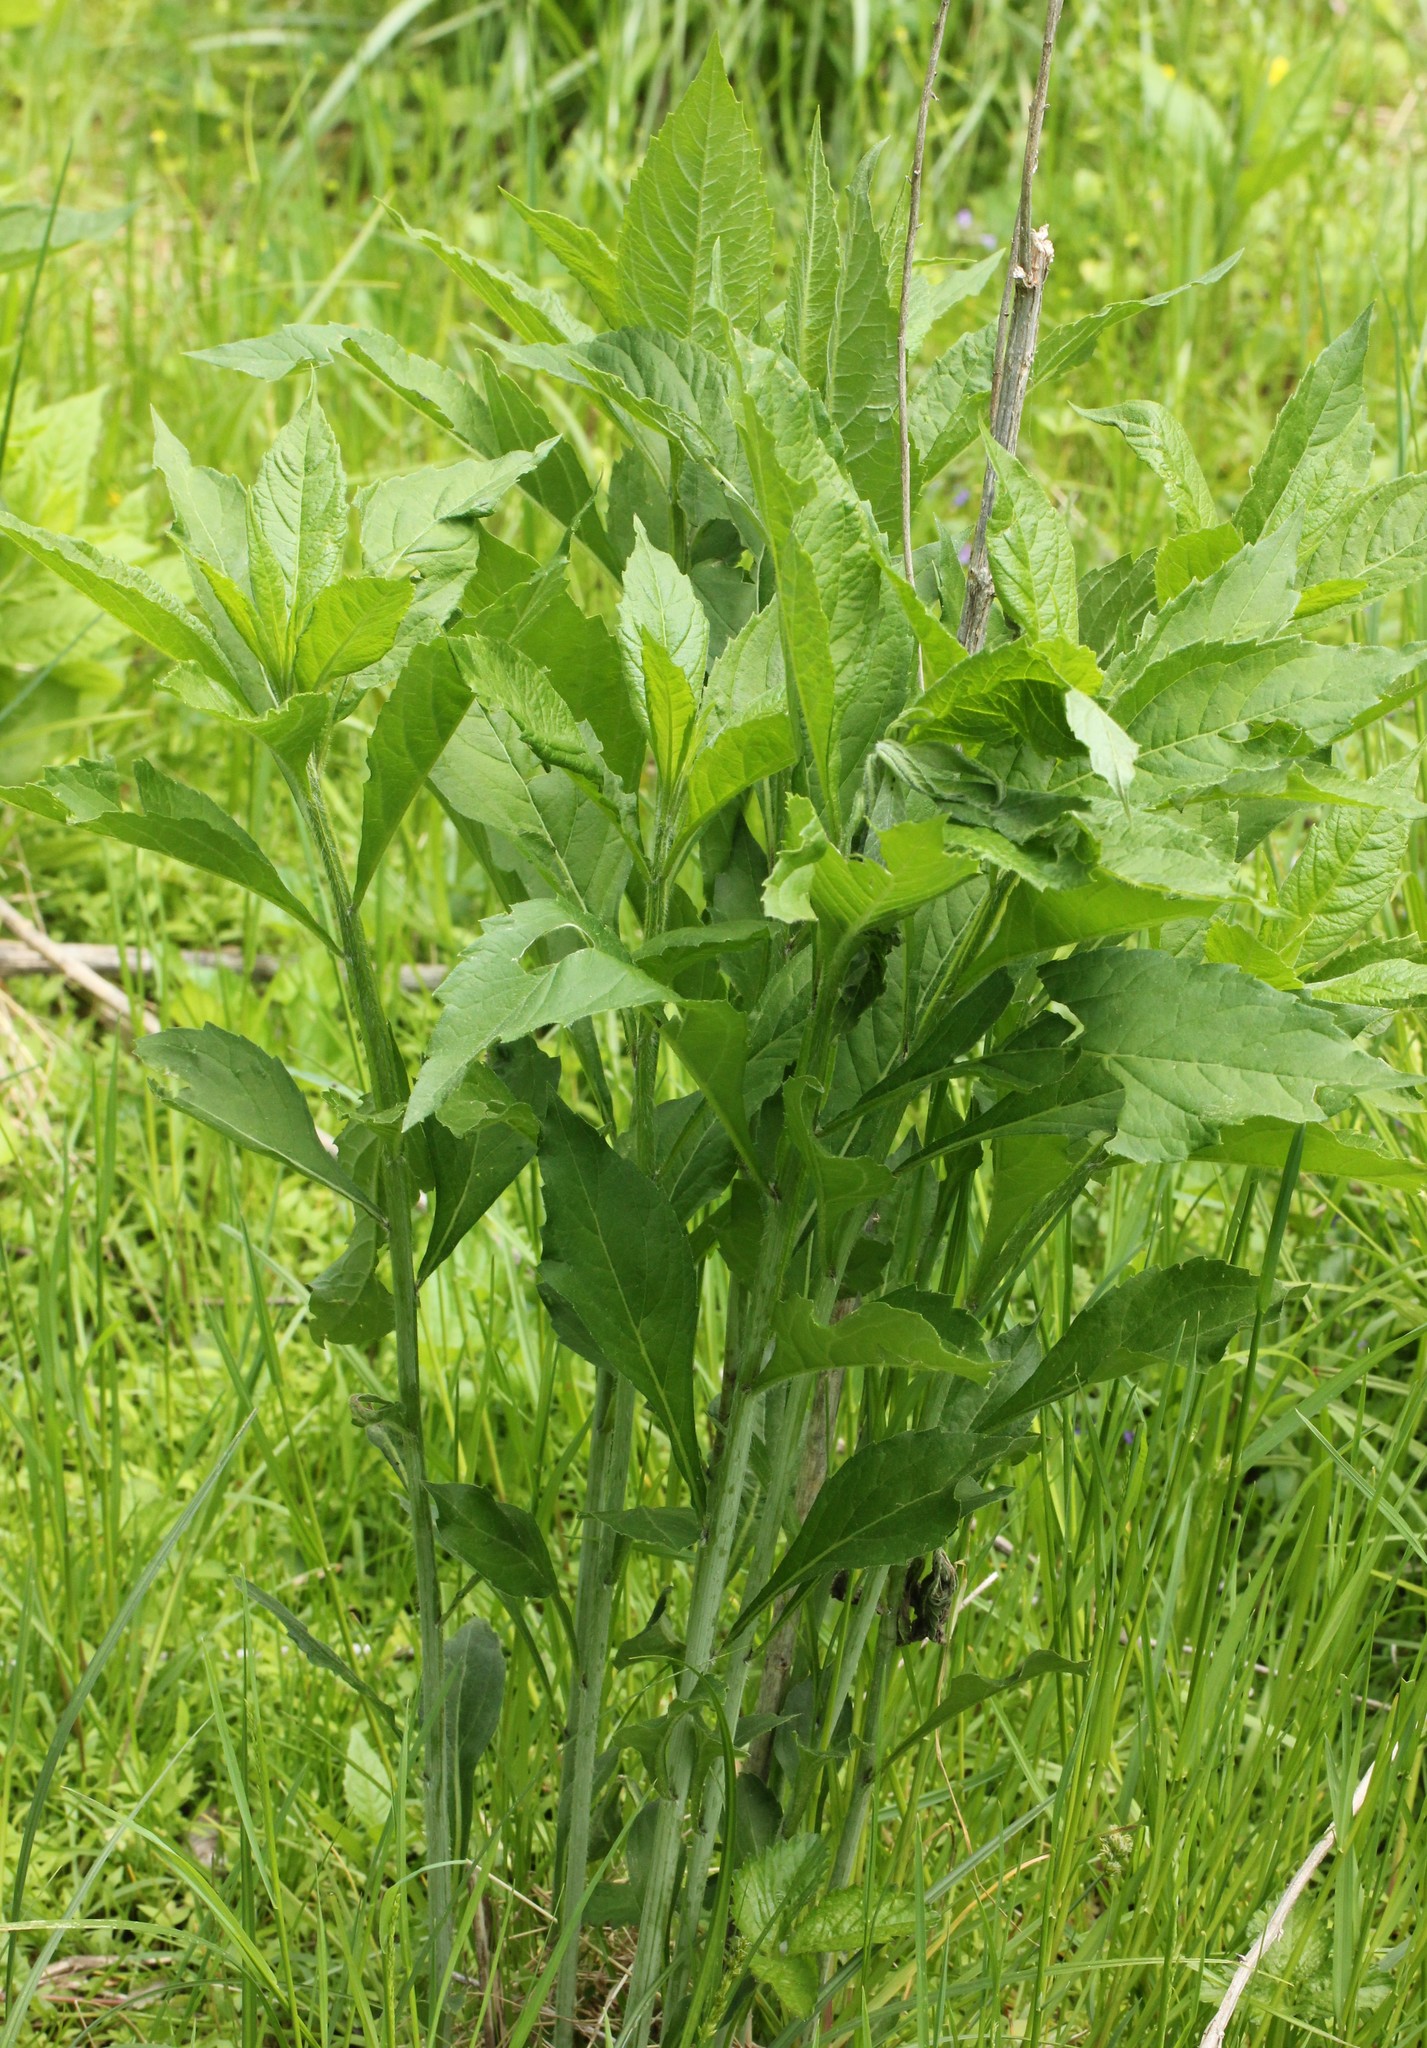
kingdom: Plantae
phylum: Tracheophyta
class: Magnoliopsida
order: Asterales
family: Asteraceae
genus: Verbesina
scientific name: Verbesina alternifolia
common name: Wingstem
